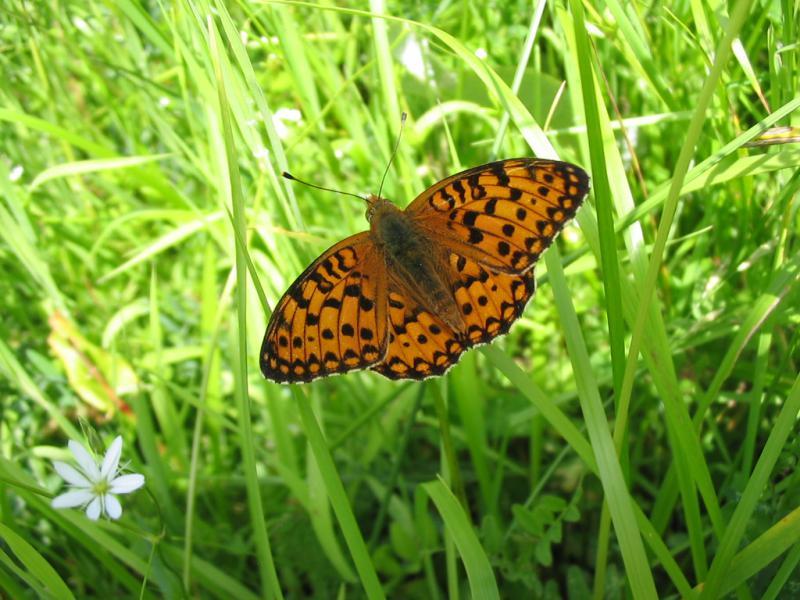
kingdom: Animalia
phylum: Arthropoda
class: Insecta
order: Lepidoptera
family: Nymphalidae
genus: Speyeria
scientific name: Speyeria aglaja
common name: Dark green fritillary
